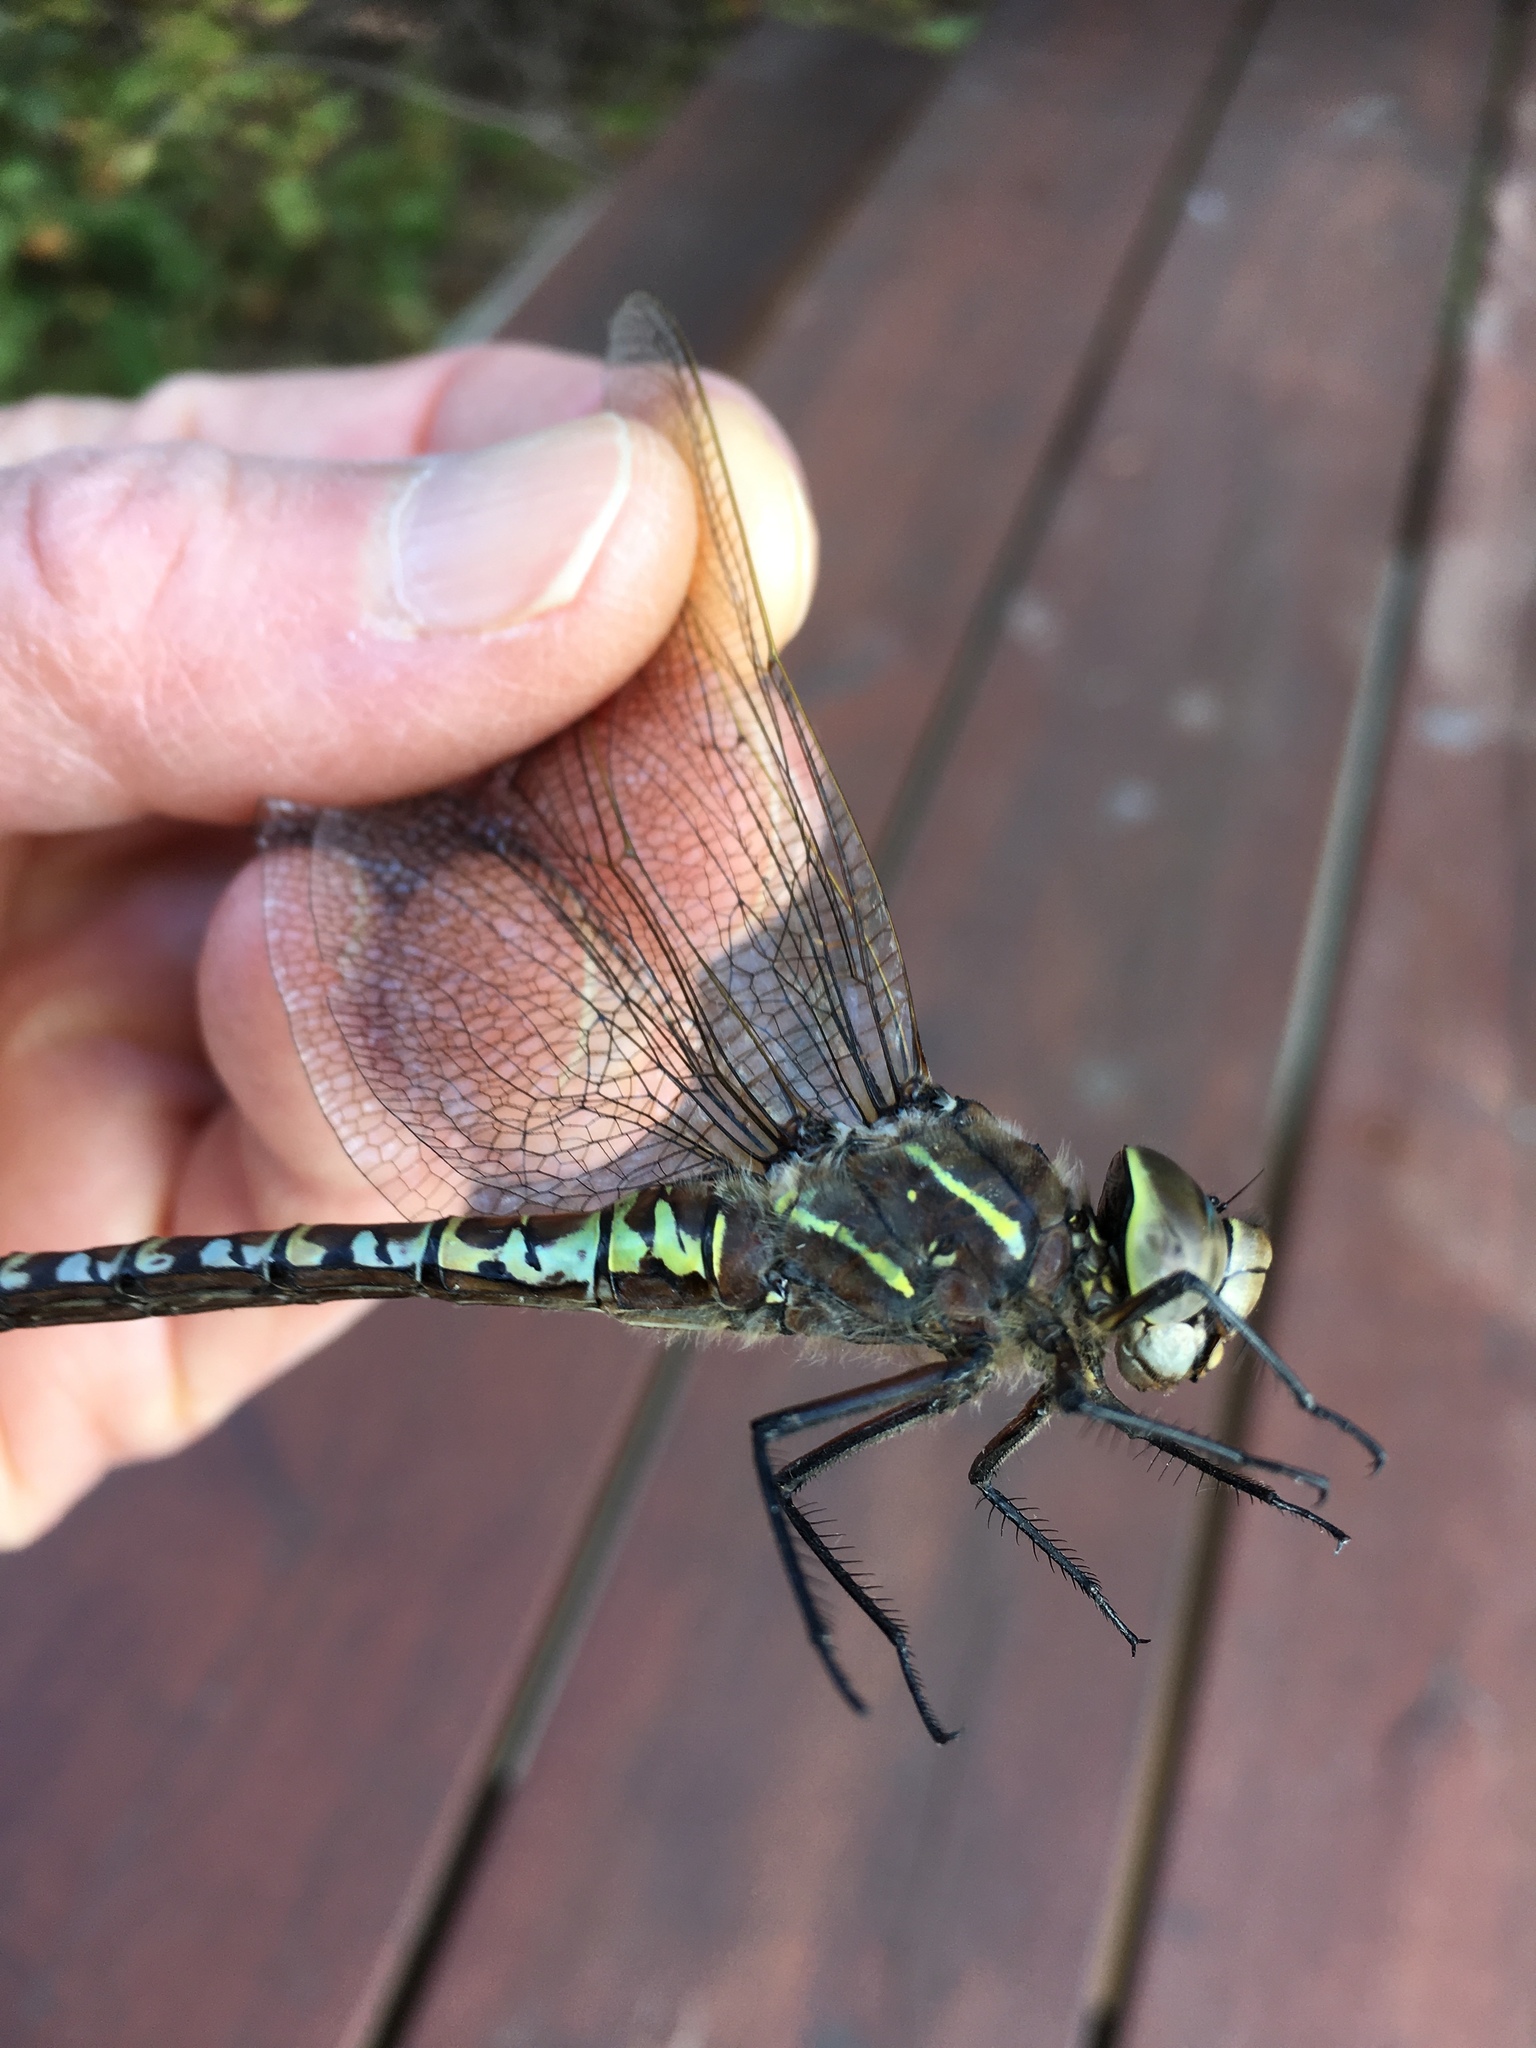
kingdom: Animalia
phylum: Arthropoda
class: Insecta
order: Odonata
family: Aeshnidae
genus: Aeshna
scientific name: Aeshna interrupta
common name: Variable darner
